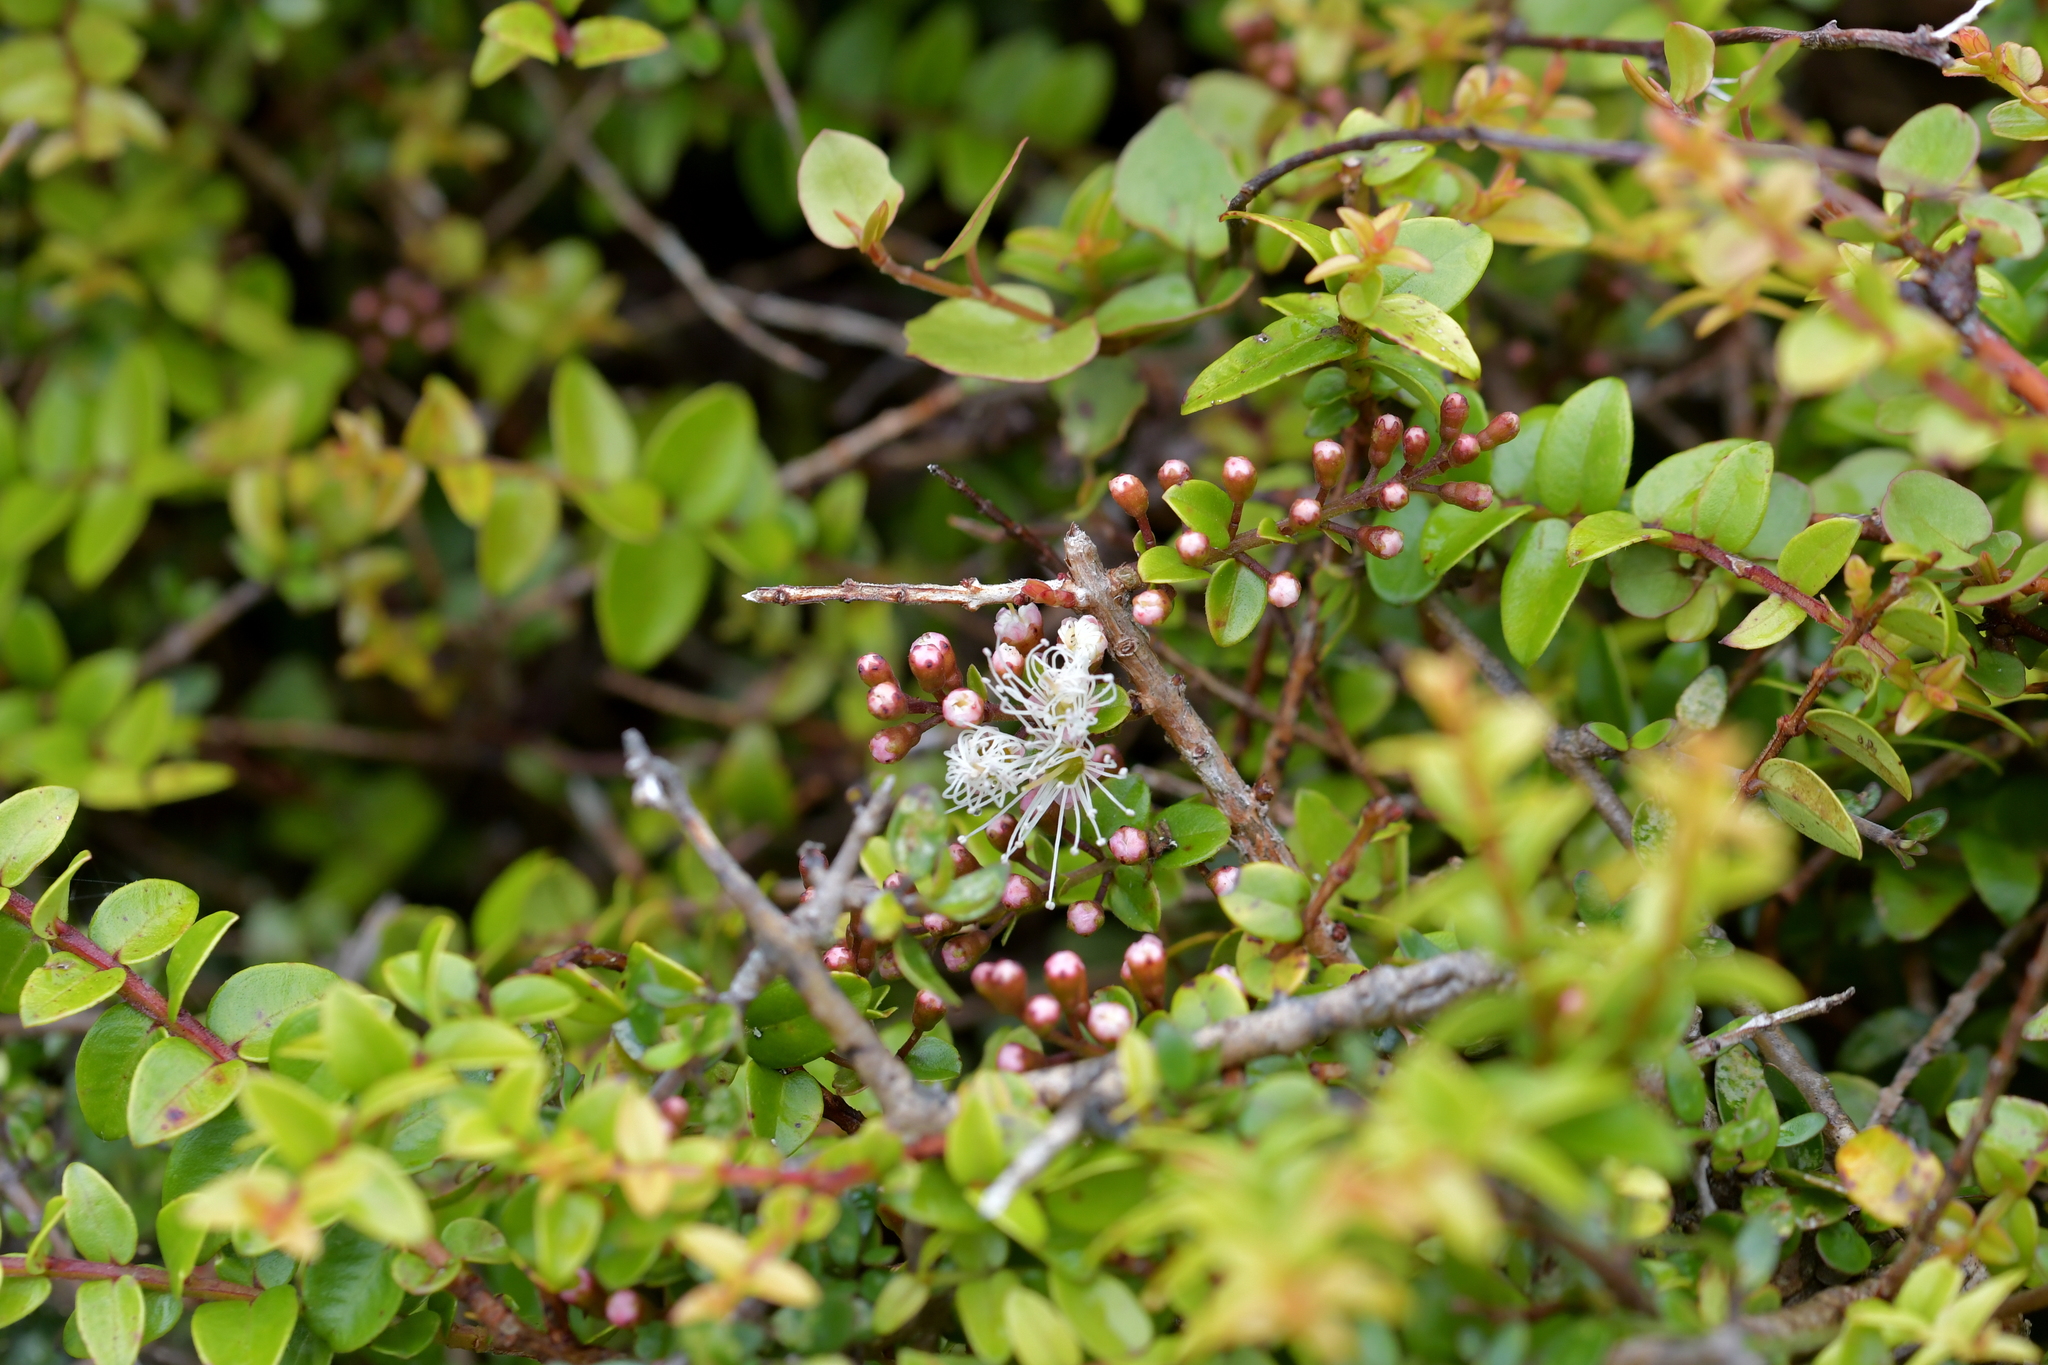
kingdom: Plantae
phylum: Tracheophyta
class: Magnoliopsida
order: Myrtales
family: Myrtaceae
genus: Metrosideros
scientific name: Metrosideros diffusa
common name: Small ratavine
